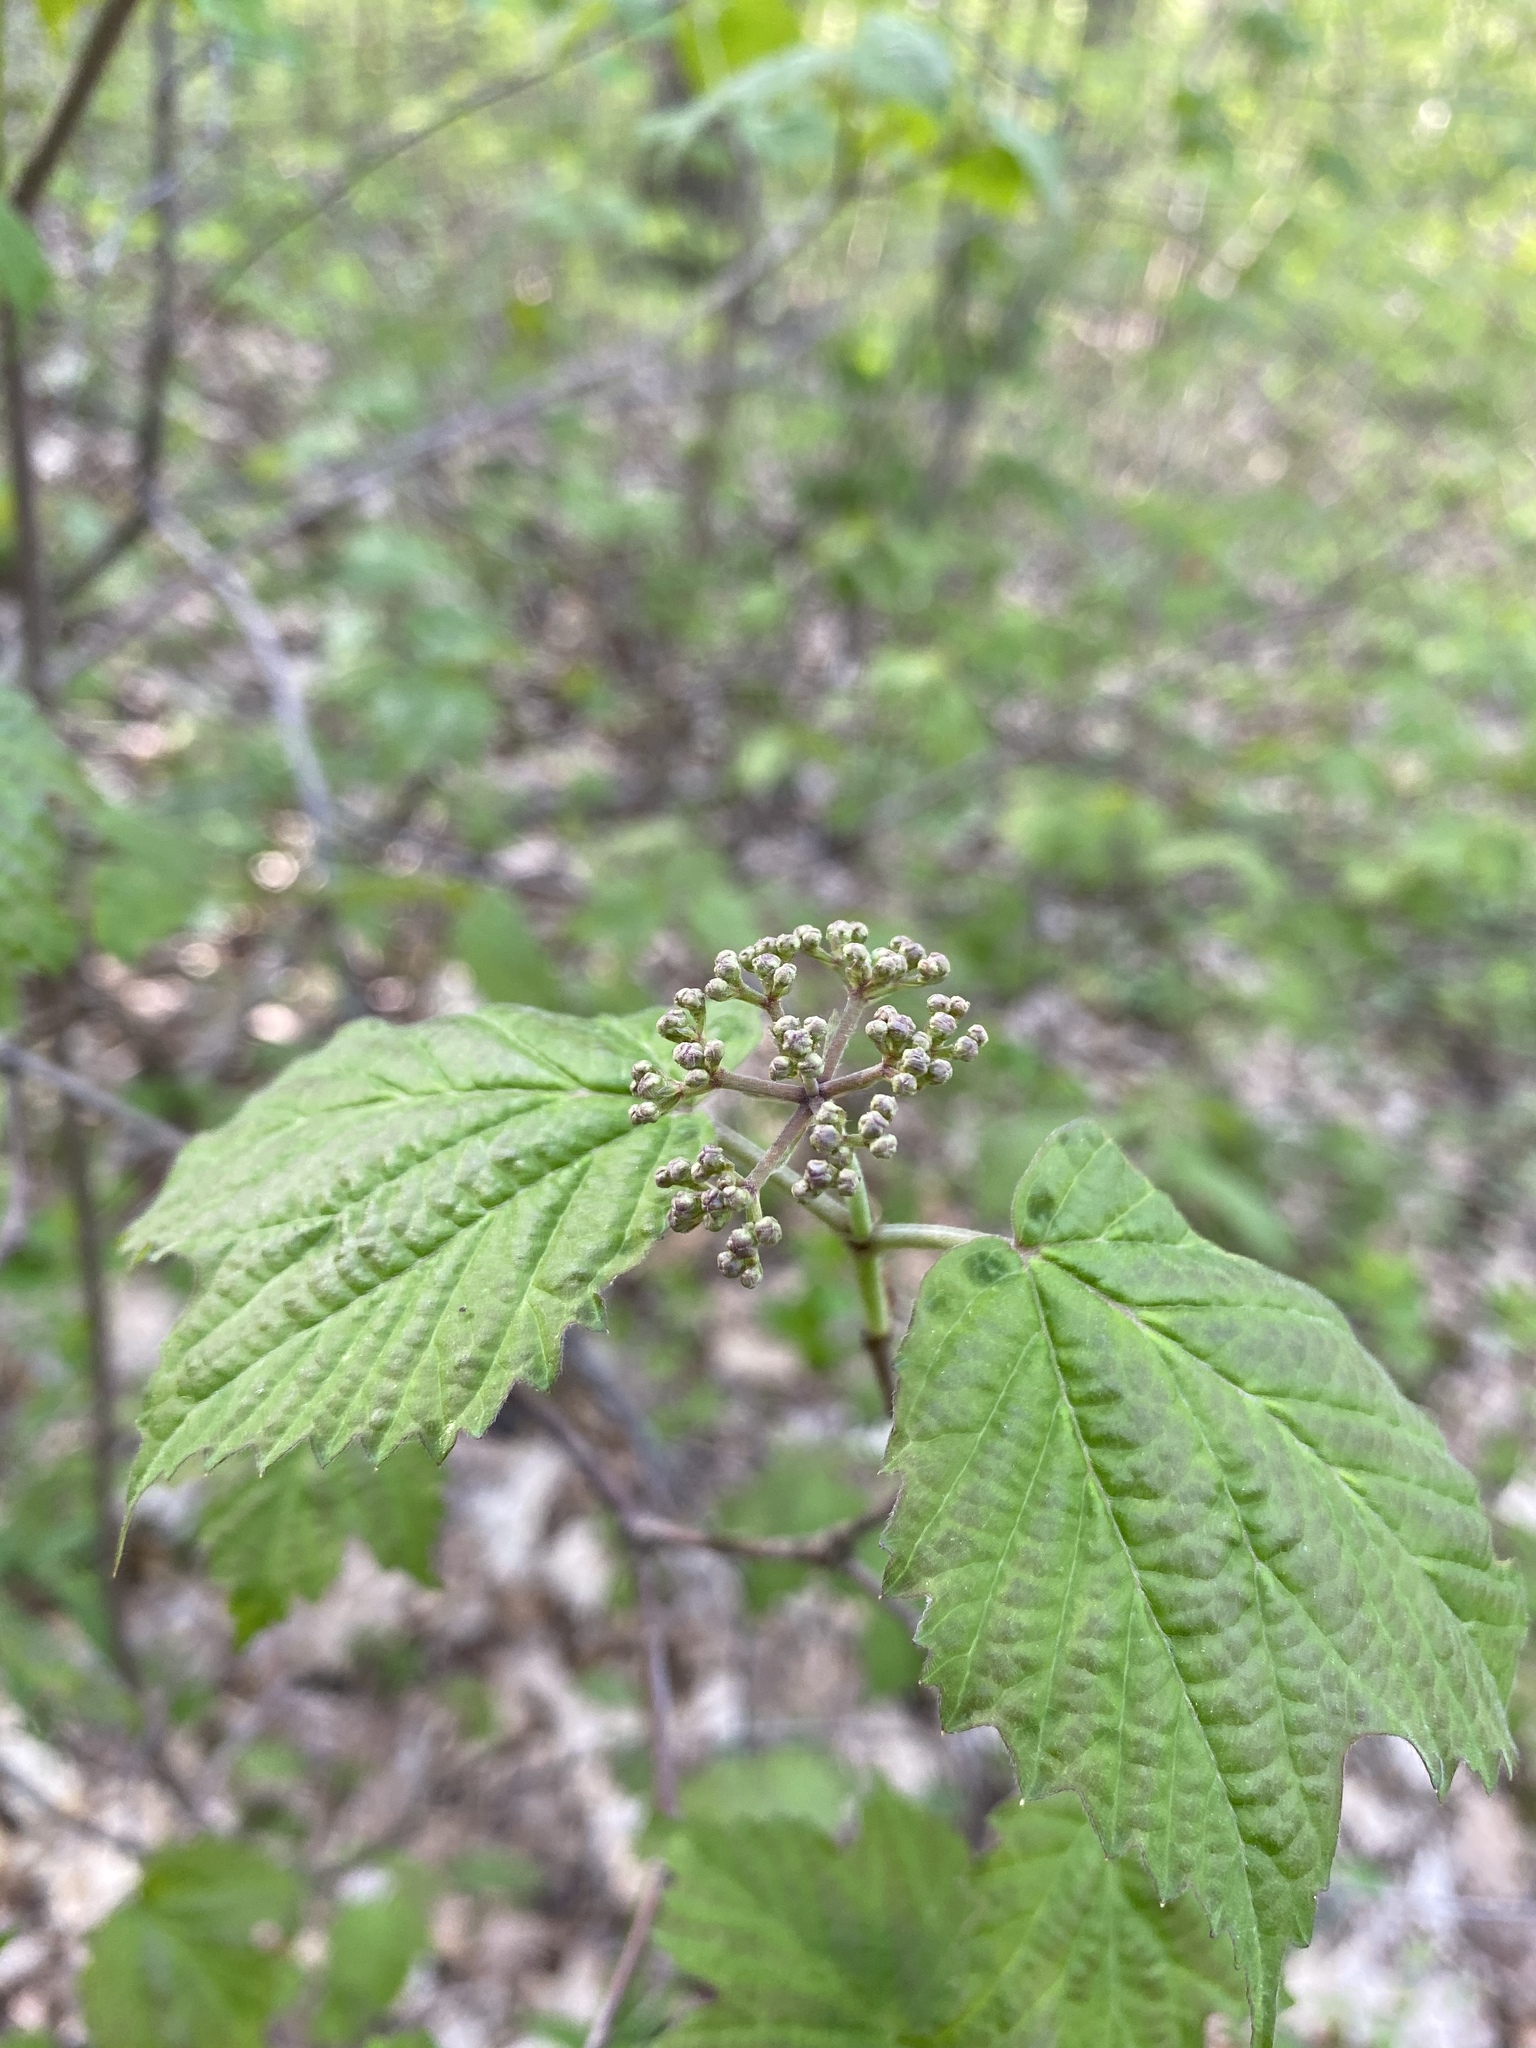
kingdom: Plantae
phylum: Tracheophyta
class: Magnoliopsida
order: Dipsacales
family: Viburnaceae
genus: Viburnum
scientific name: Viburnum acerifolium
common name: Dockmackie
